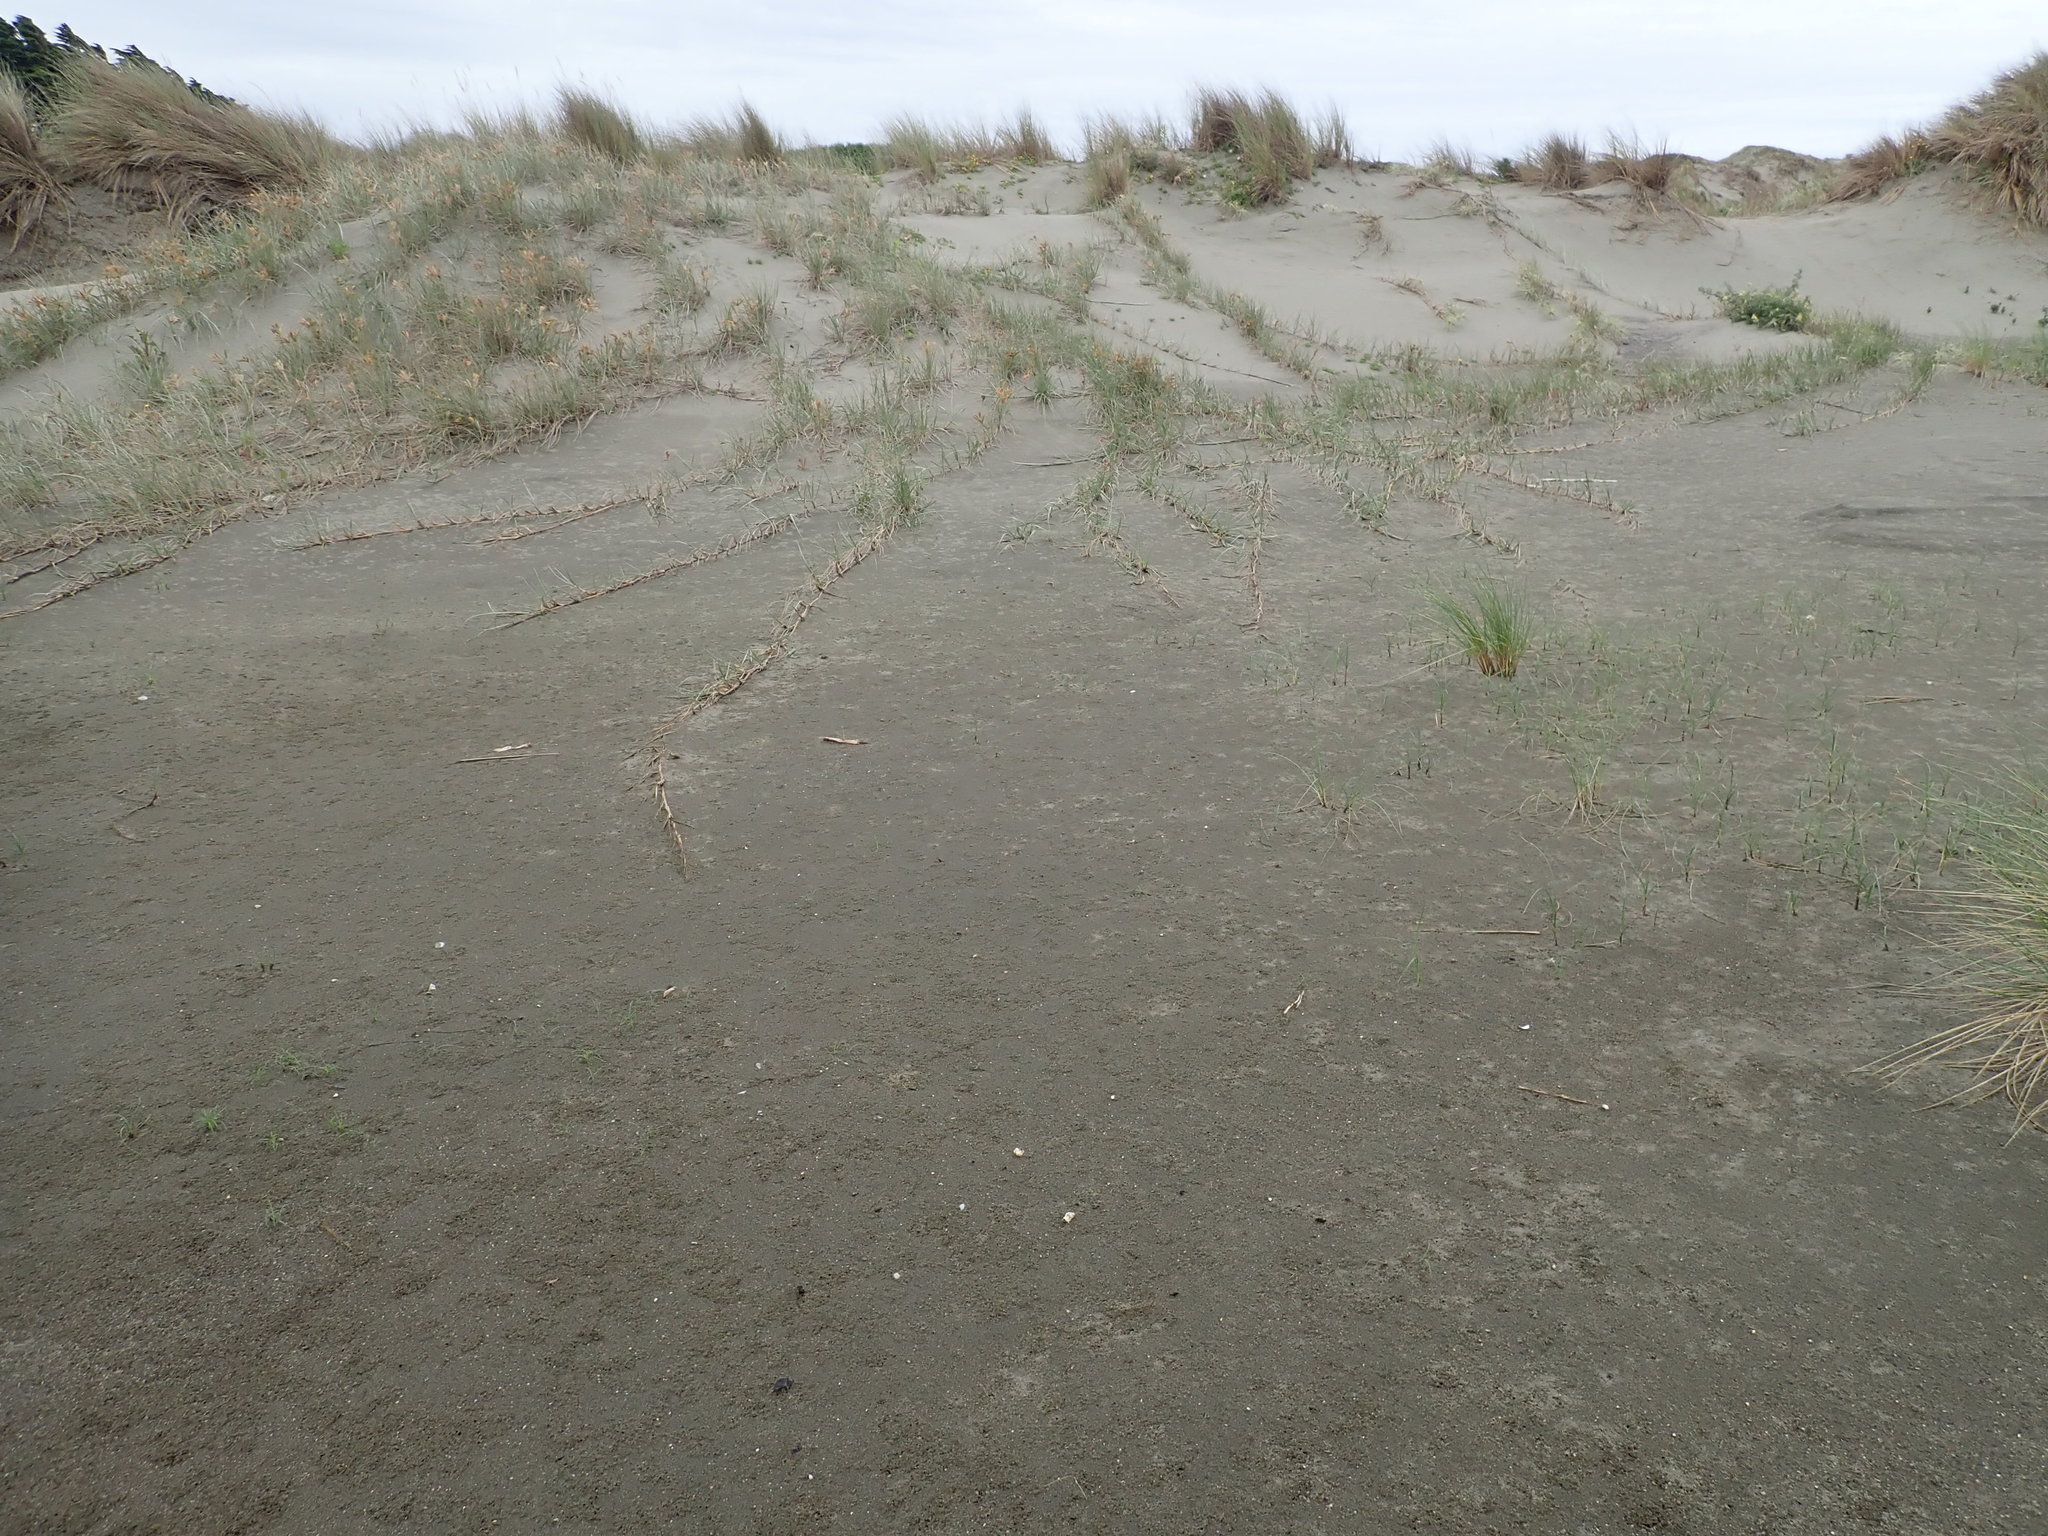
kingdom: Plantae
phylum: Tracheophyta
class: Liliopsida
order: Poales
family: Poaceae
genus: Spinifex
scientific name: Spinifex sericeus
